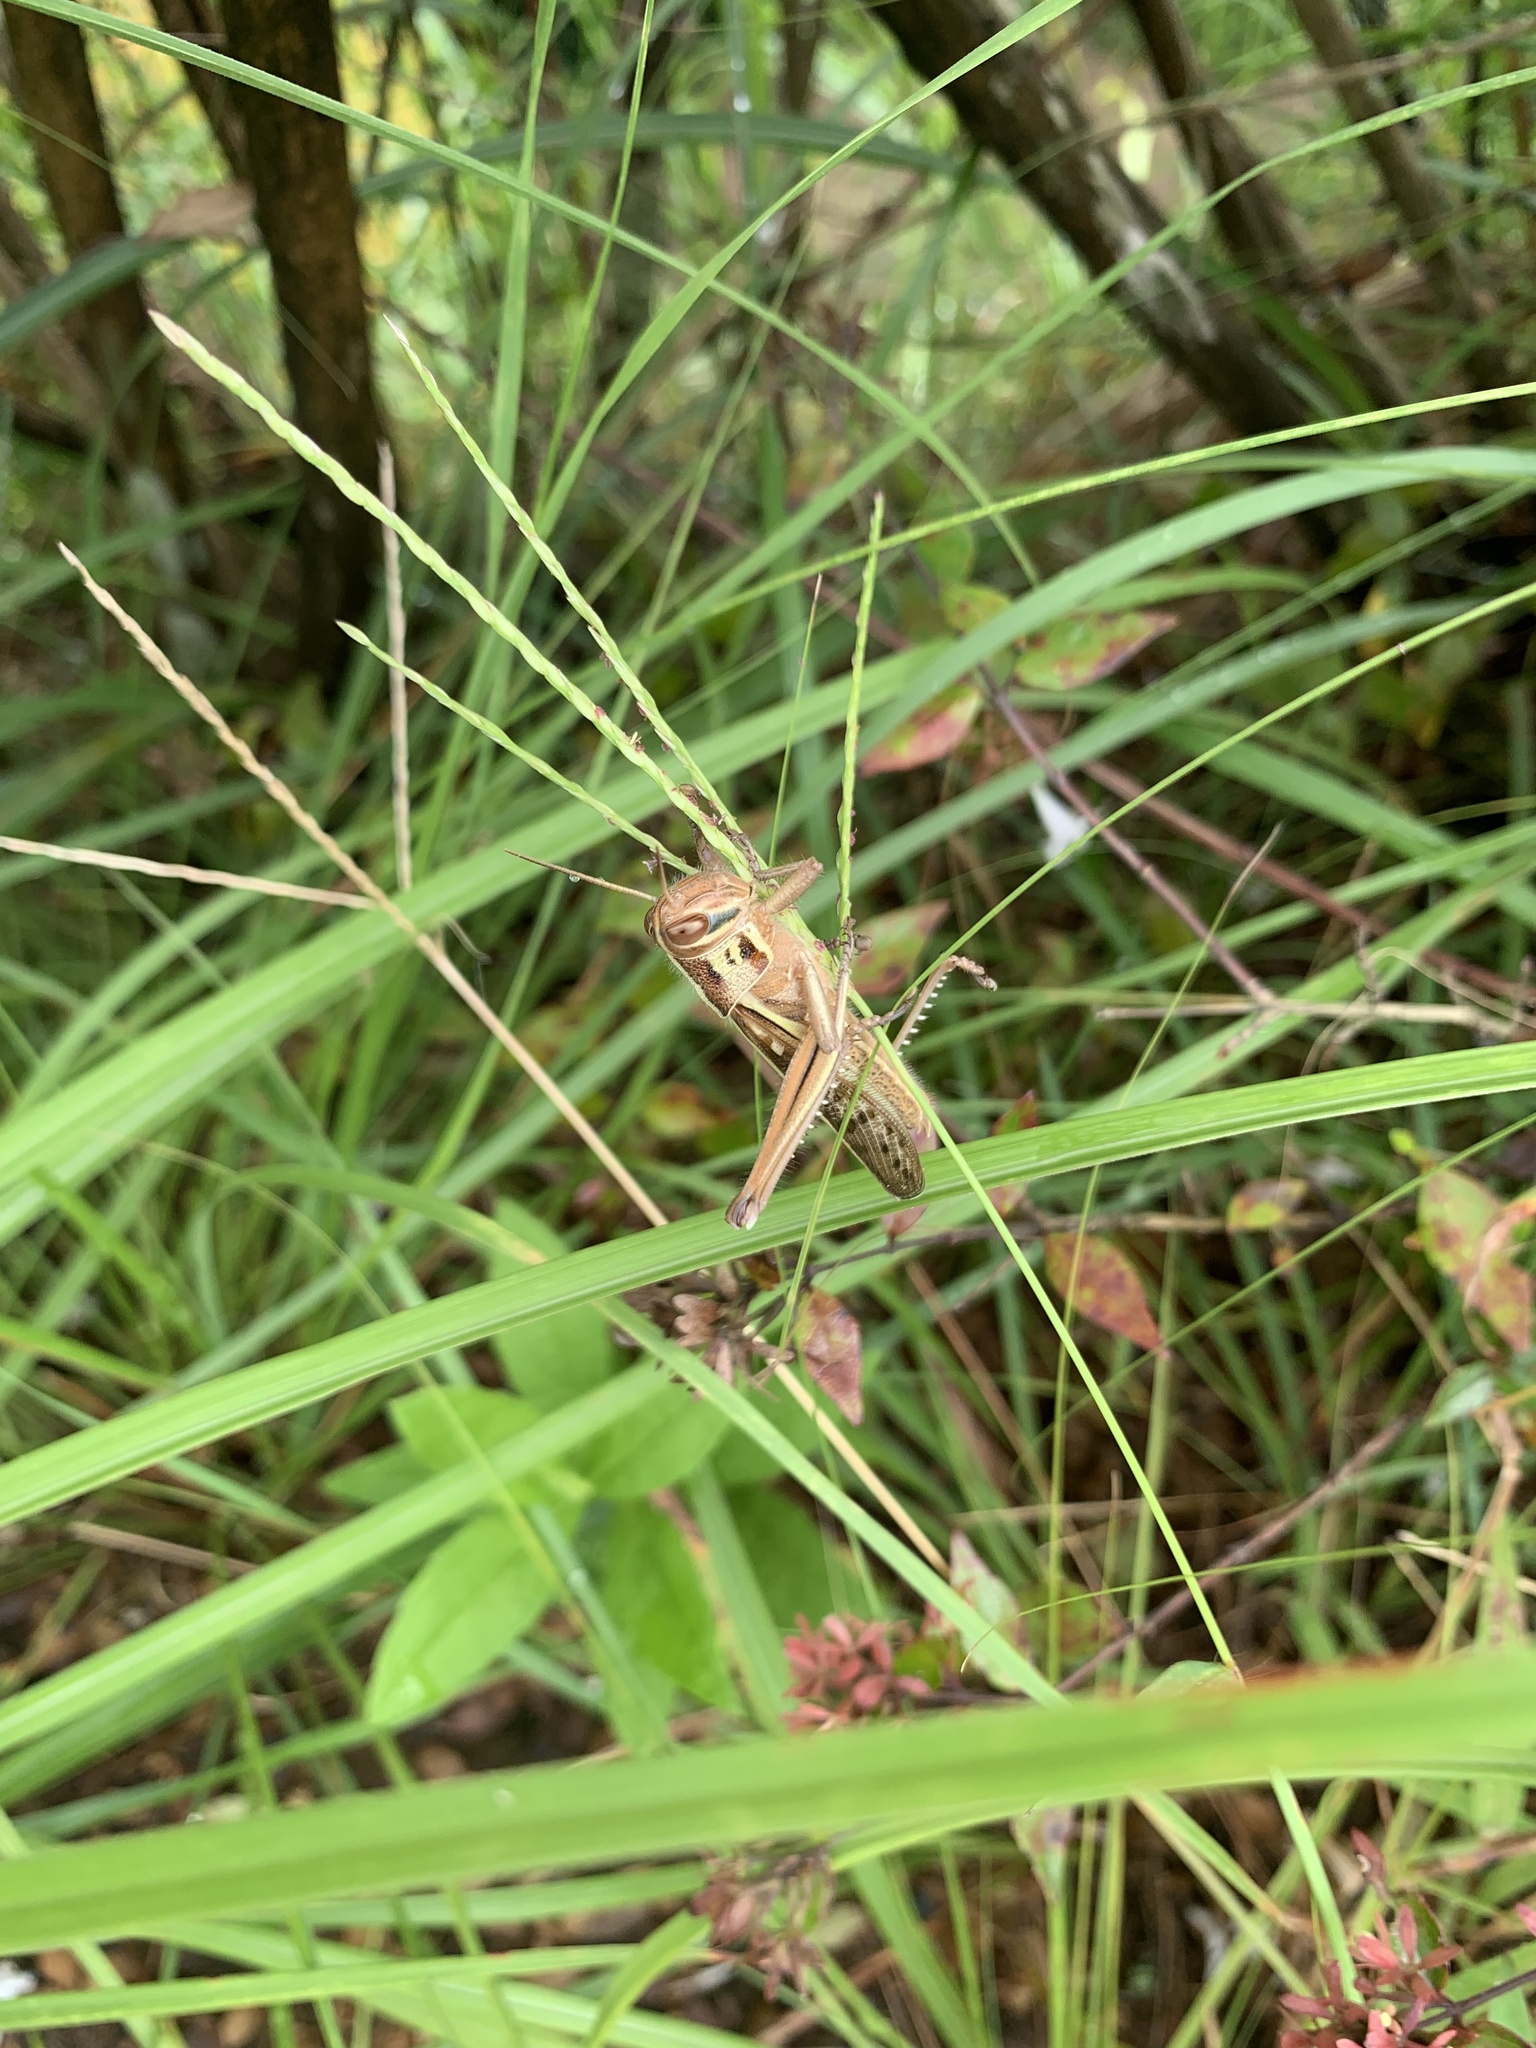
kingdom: Animalia
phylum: Arthropoda
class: Insecta
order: Orthoptera
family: Acrididae
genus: Patanga
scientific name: Patanga japonica
